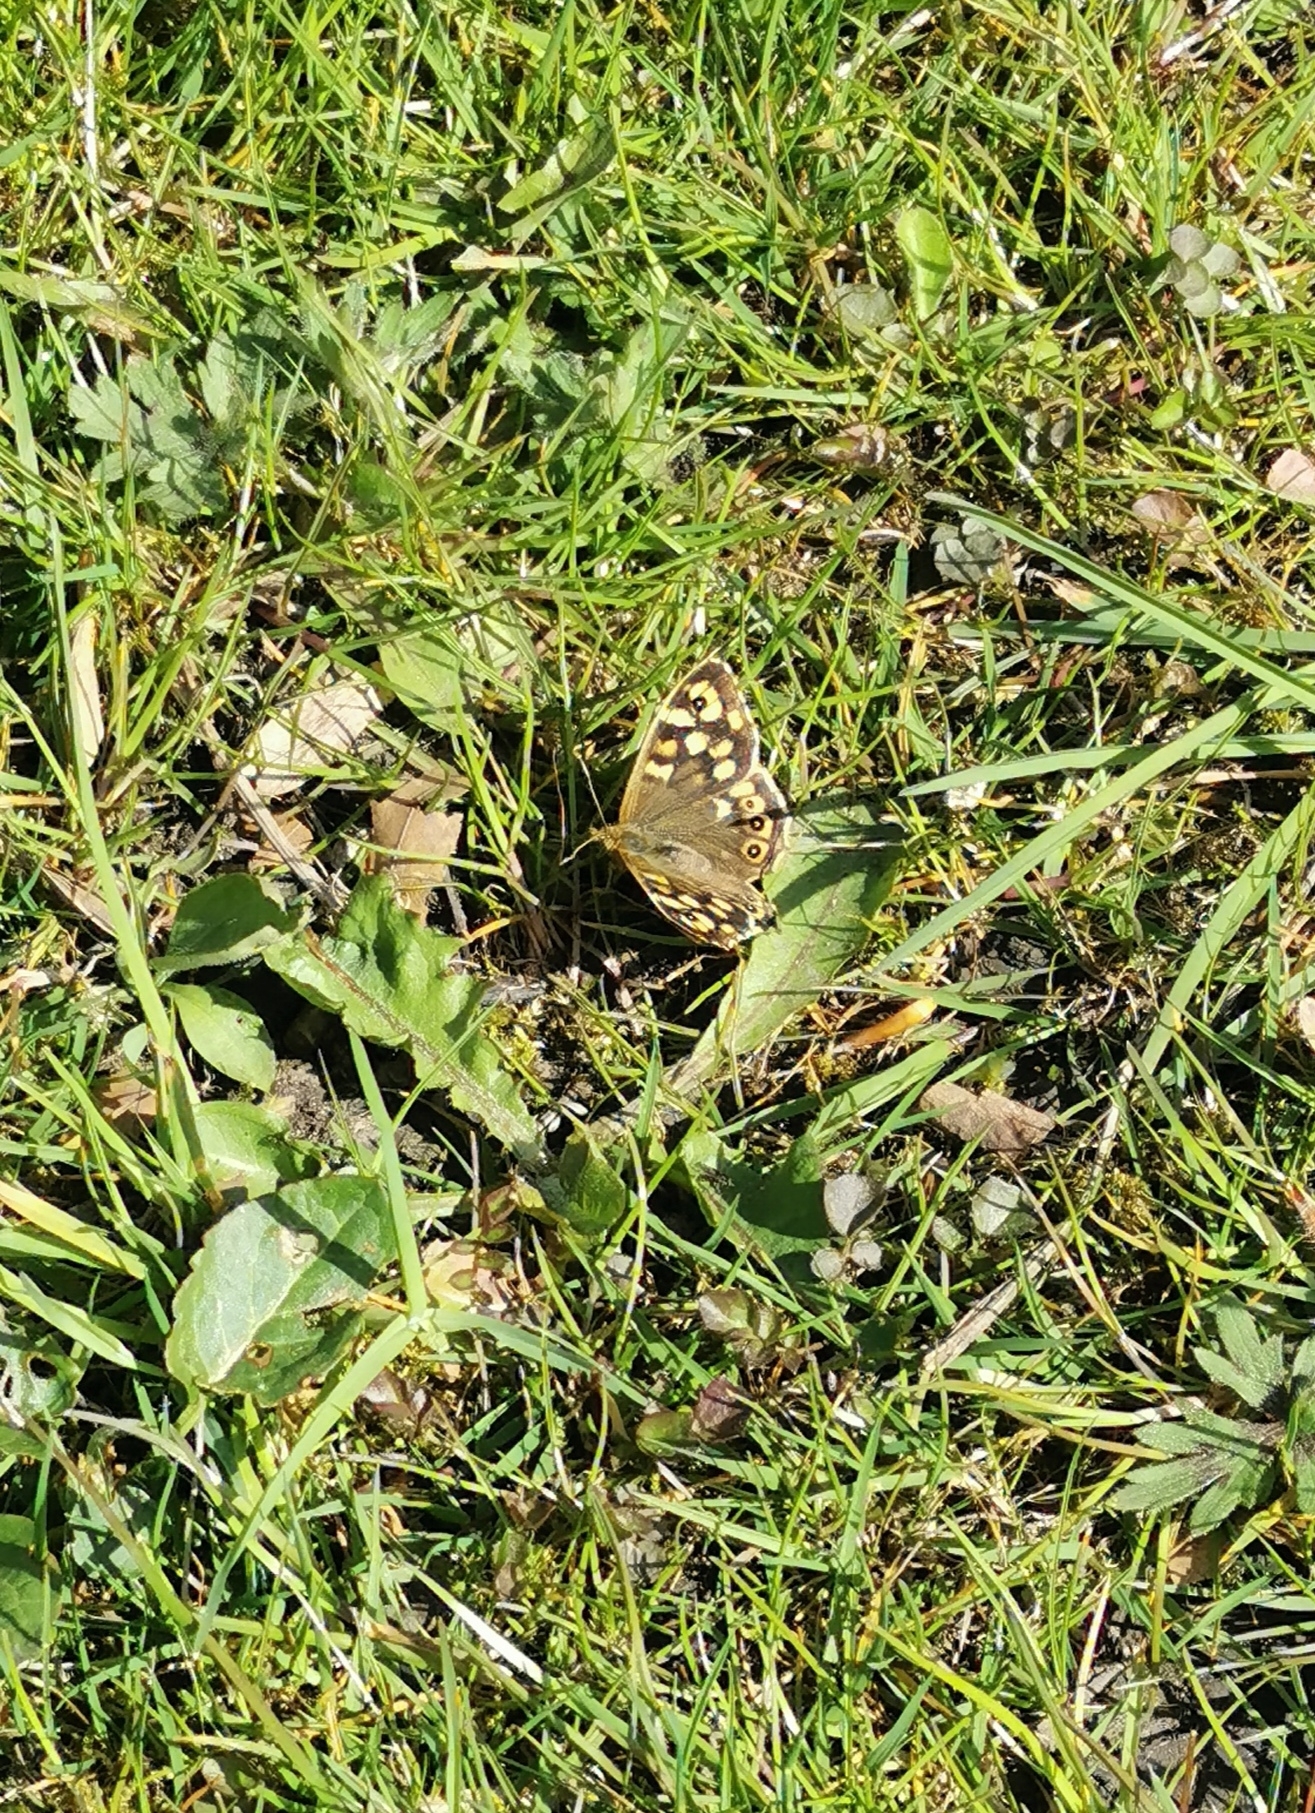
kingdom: Animalia
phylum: Arthropoda
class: Insecta
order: Lepidoptera
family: Nymphalidae
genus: Pararge
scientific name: Pararge aegeria
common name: Speckled wood
